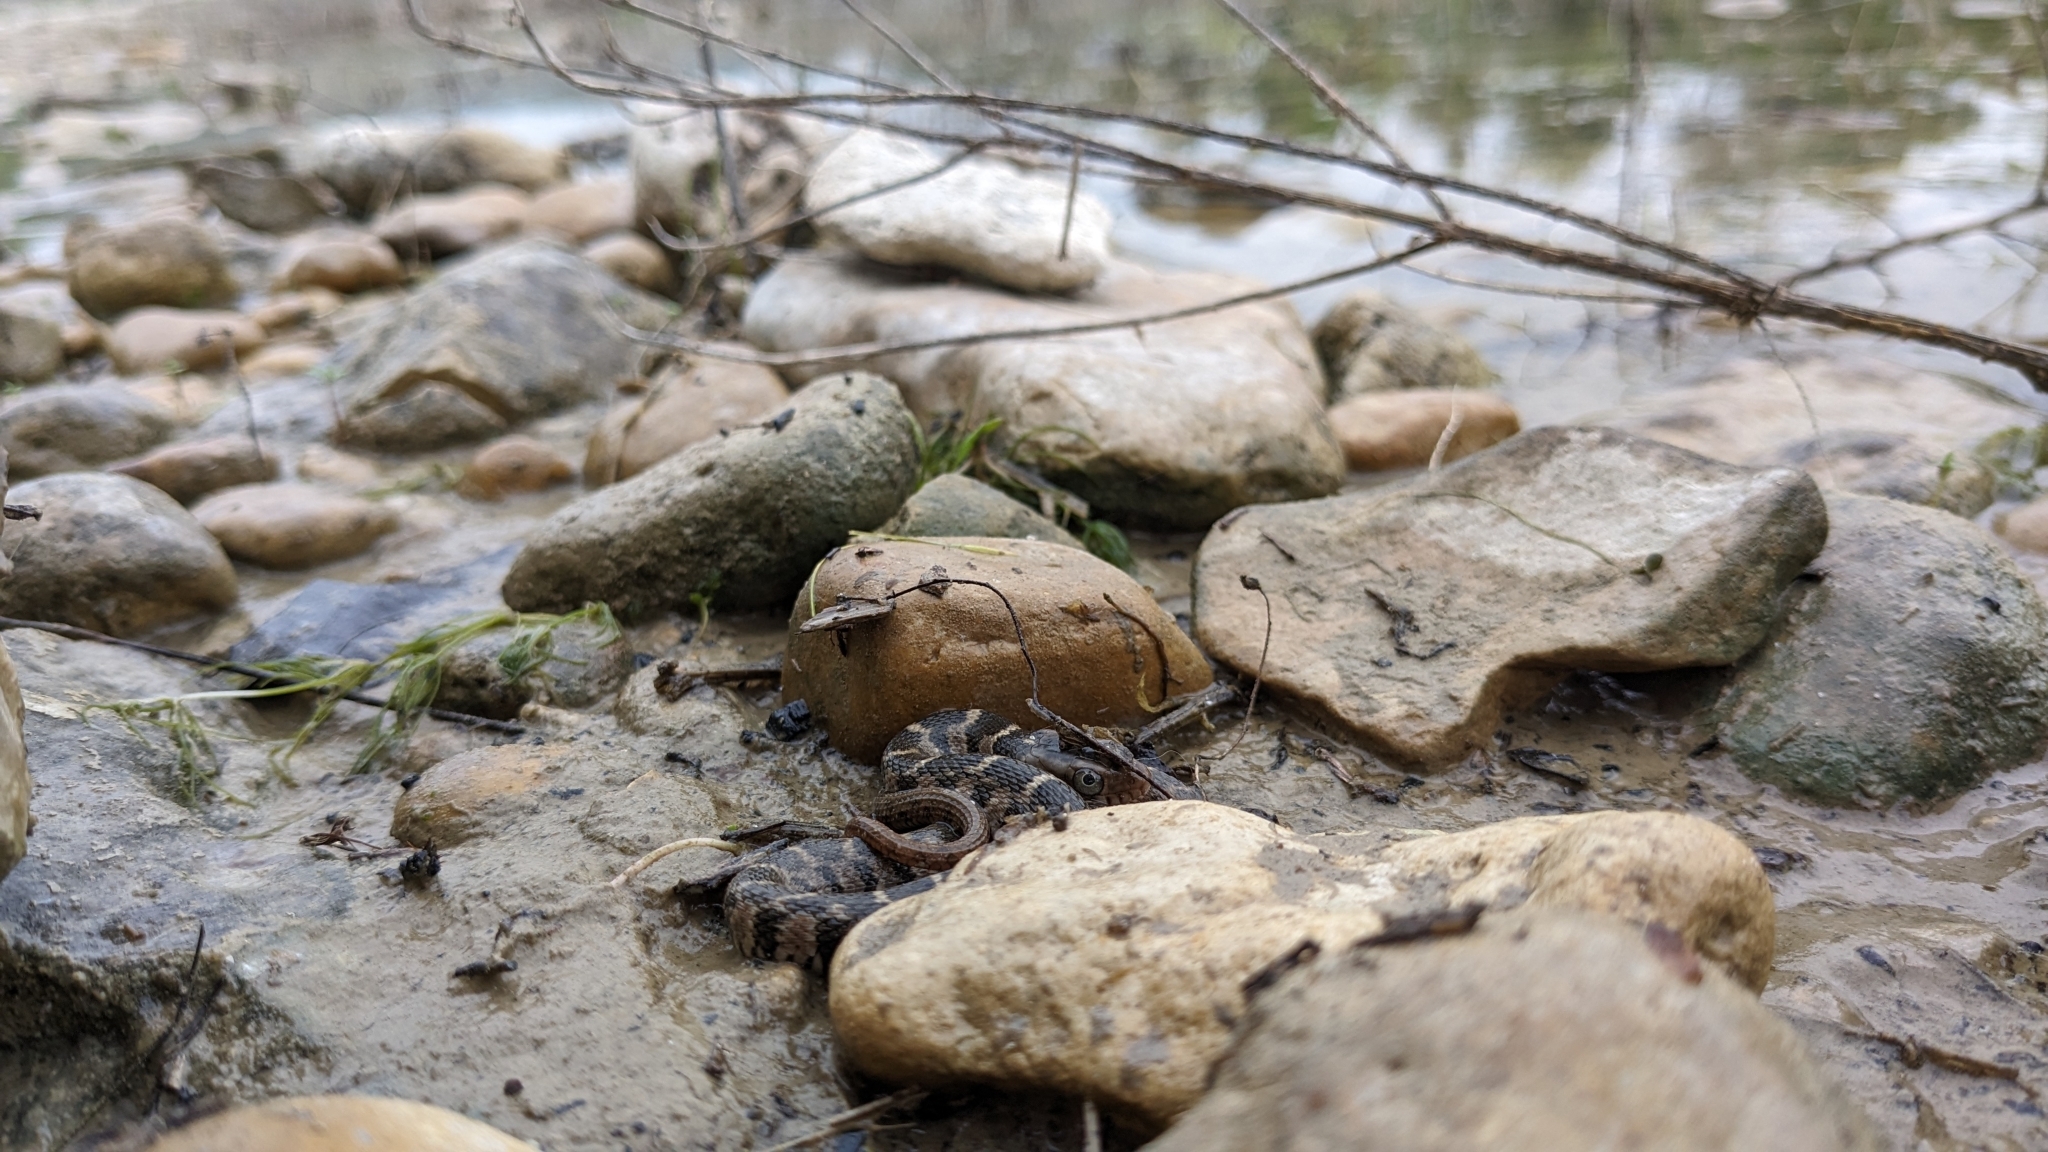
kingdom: Animalia
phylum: Chordata
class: Squamata
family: Colubridae
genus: Nerodia
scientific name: Nerodia erythrogaster
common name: Plainbelly water snake
